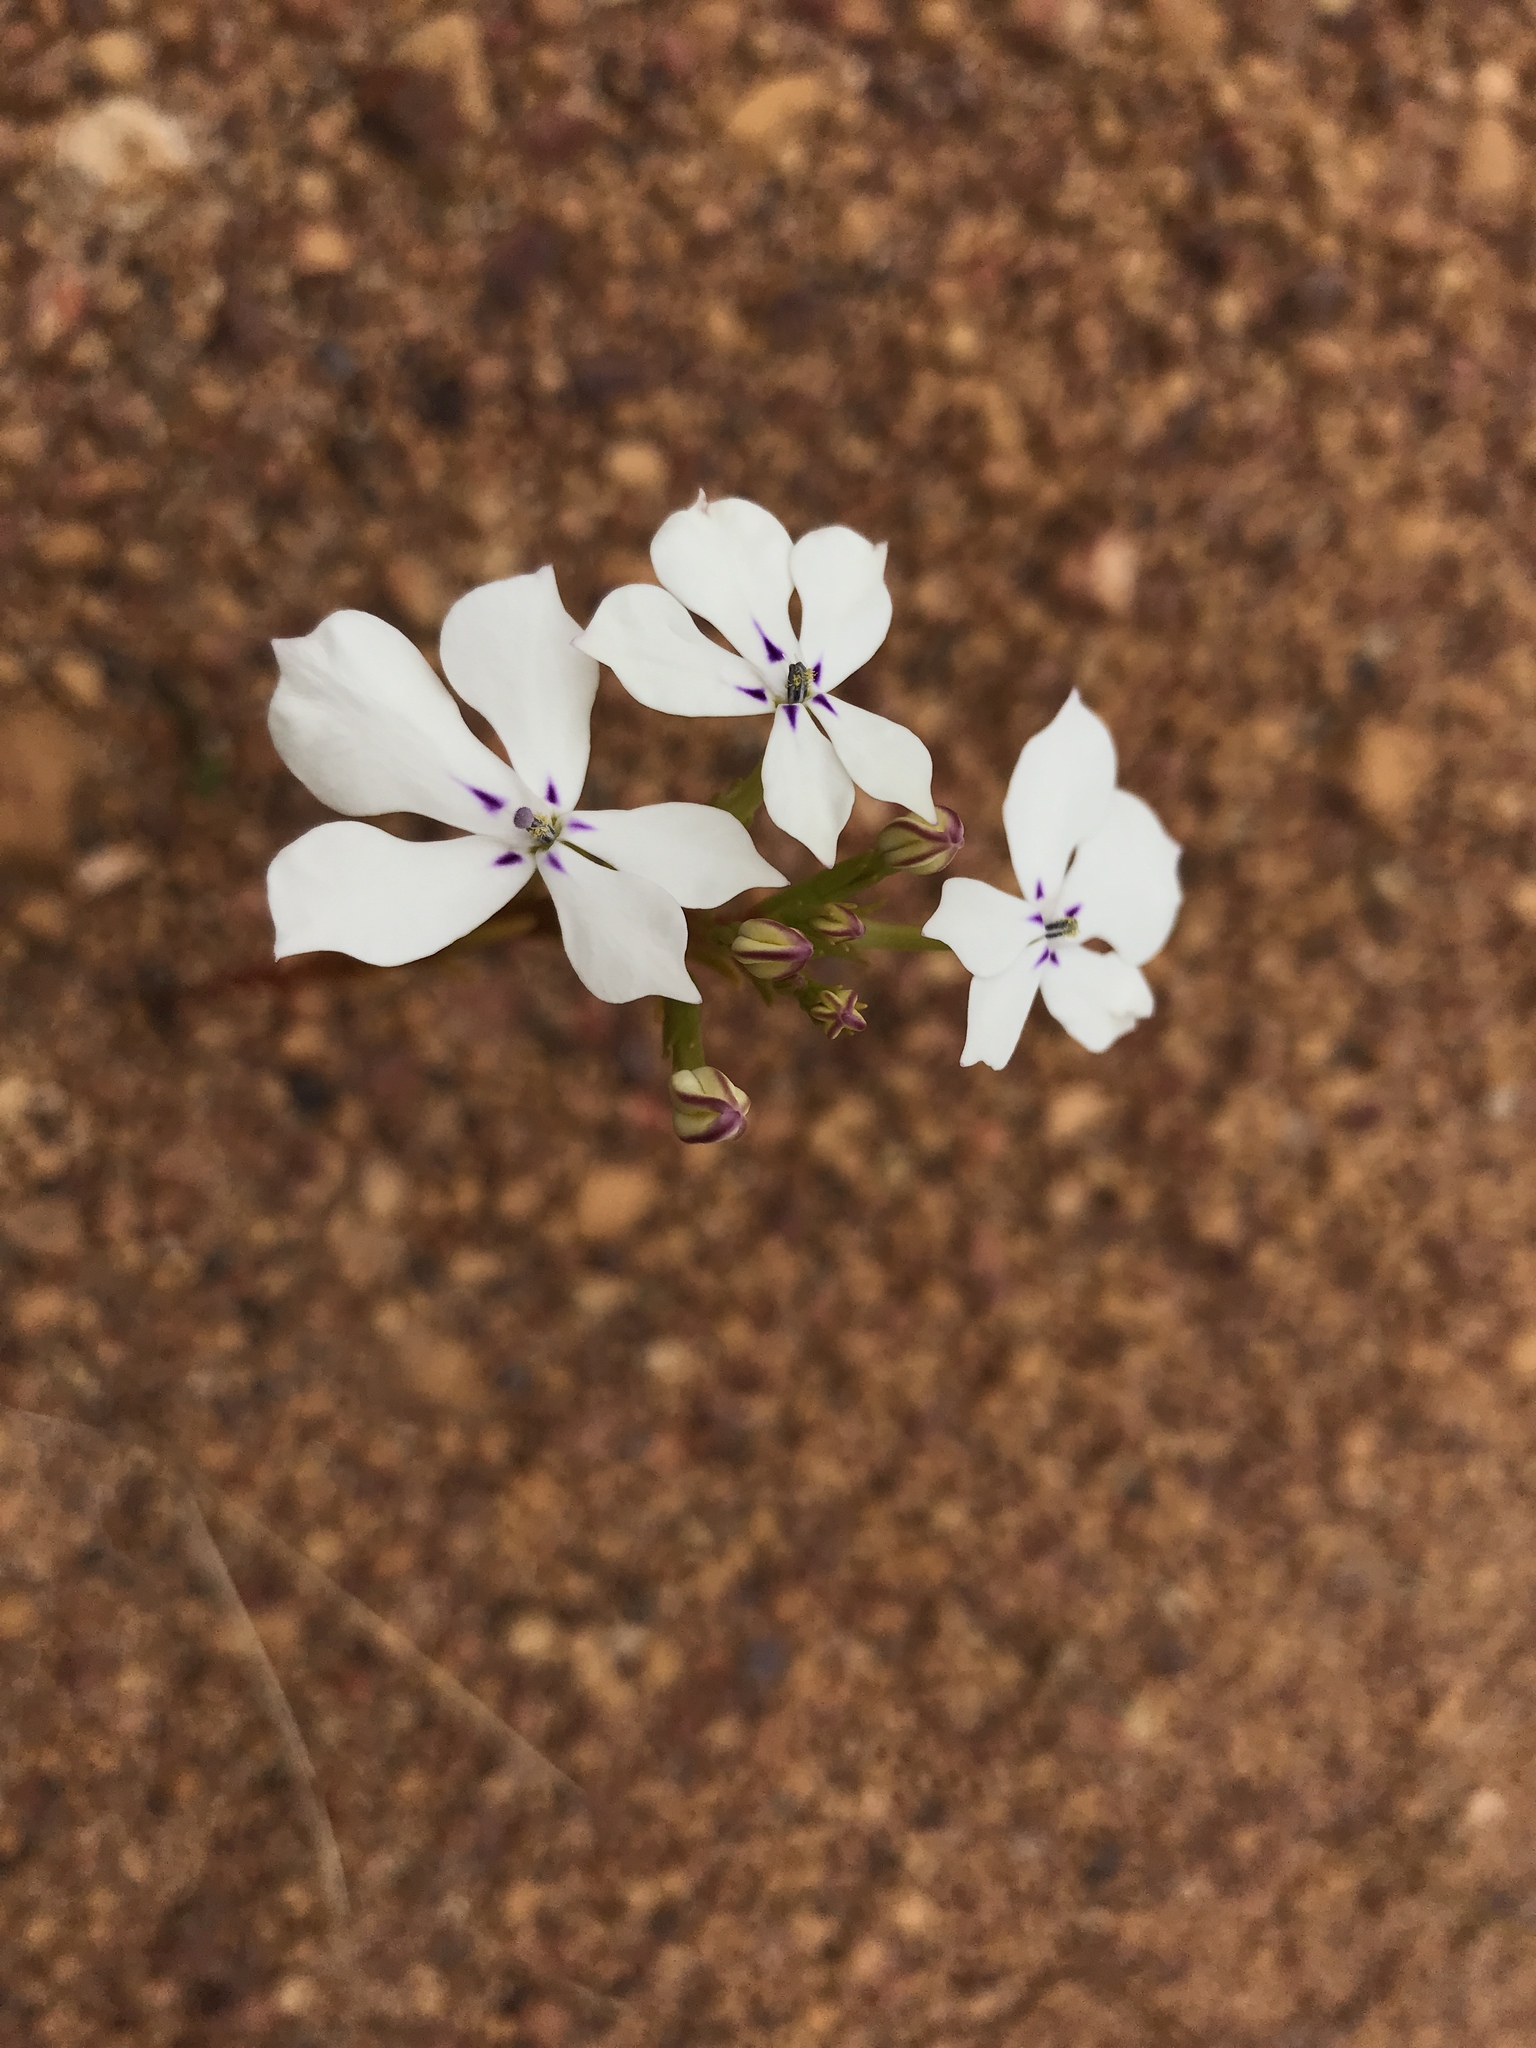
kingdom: Plantae
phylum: Tracheophyta
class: Magnoliopsida
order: Asterales
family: Campanulaceae
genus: Isotoma
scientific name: Isotoma hypocrateriformis
